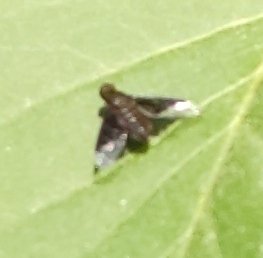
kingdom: Animalia
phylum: Arthropoda
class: Insecta
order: Diptera
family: Bombyliidae
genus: Hemipenthes
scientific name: Hemipenthes morio
